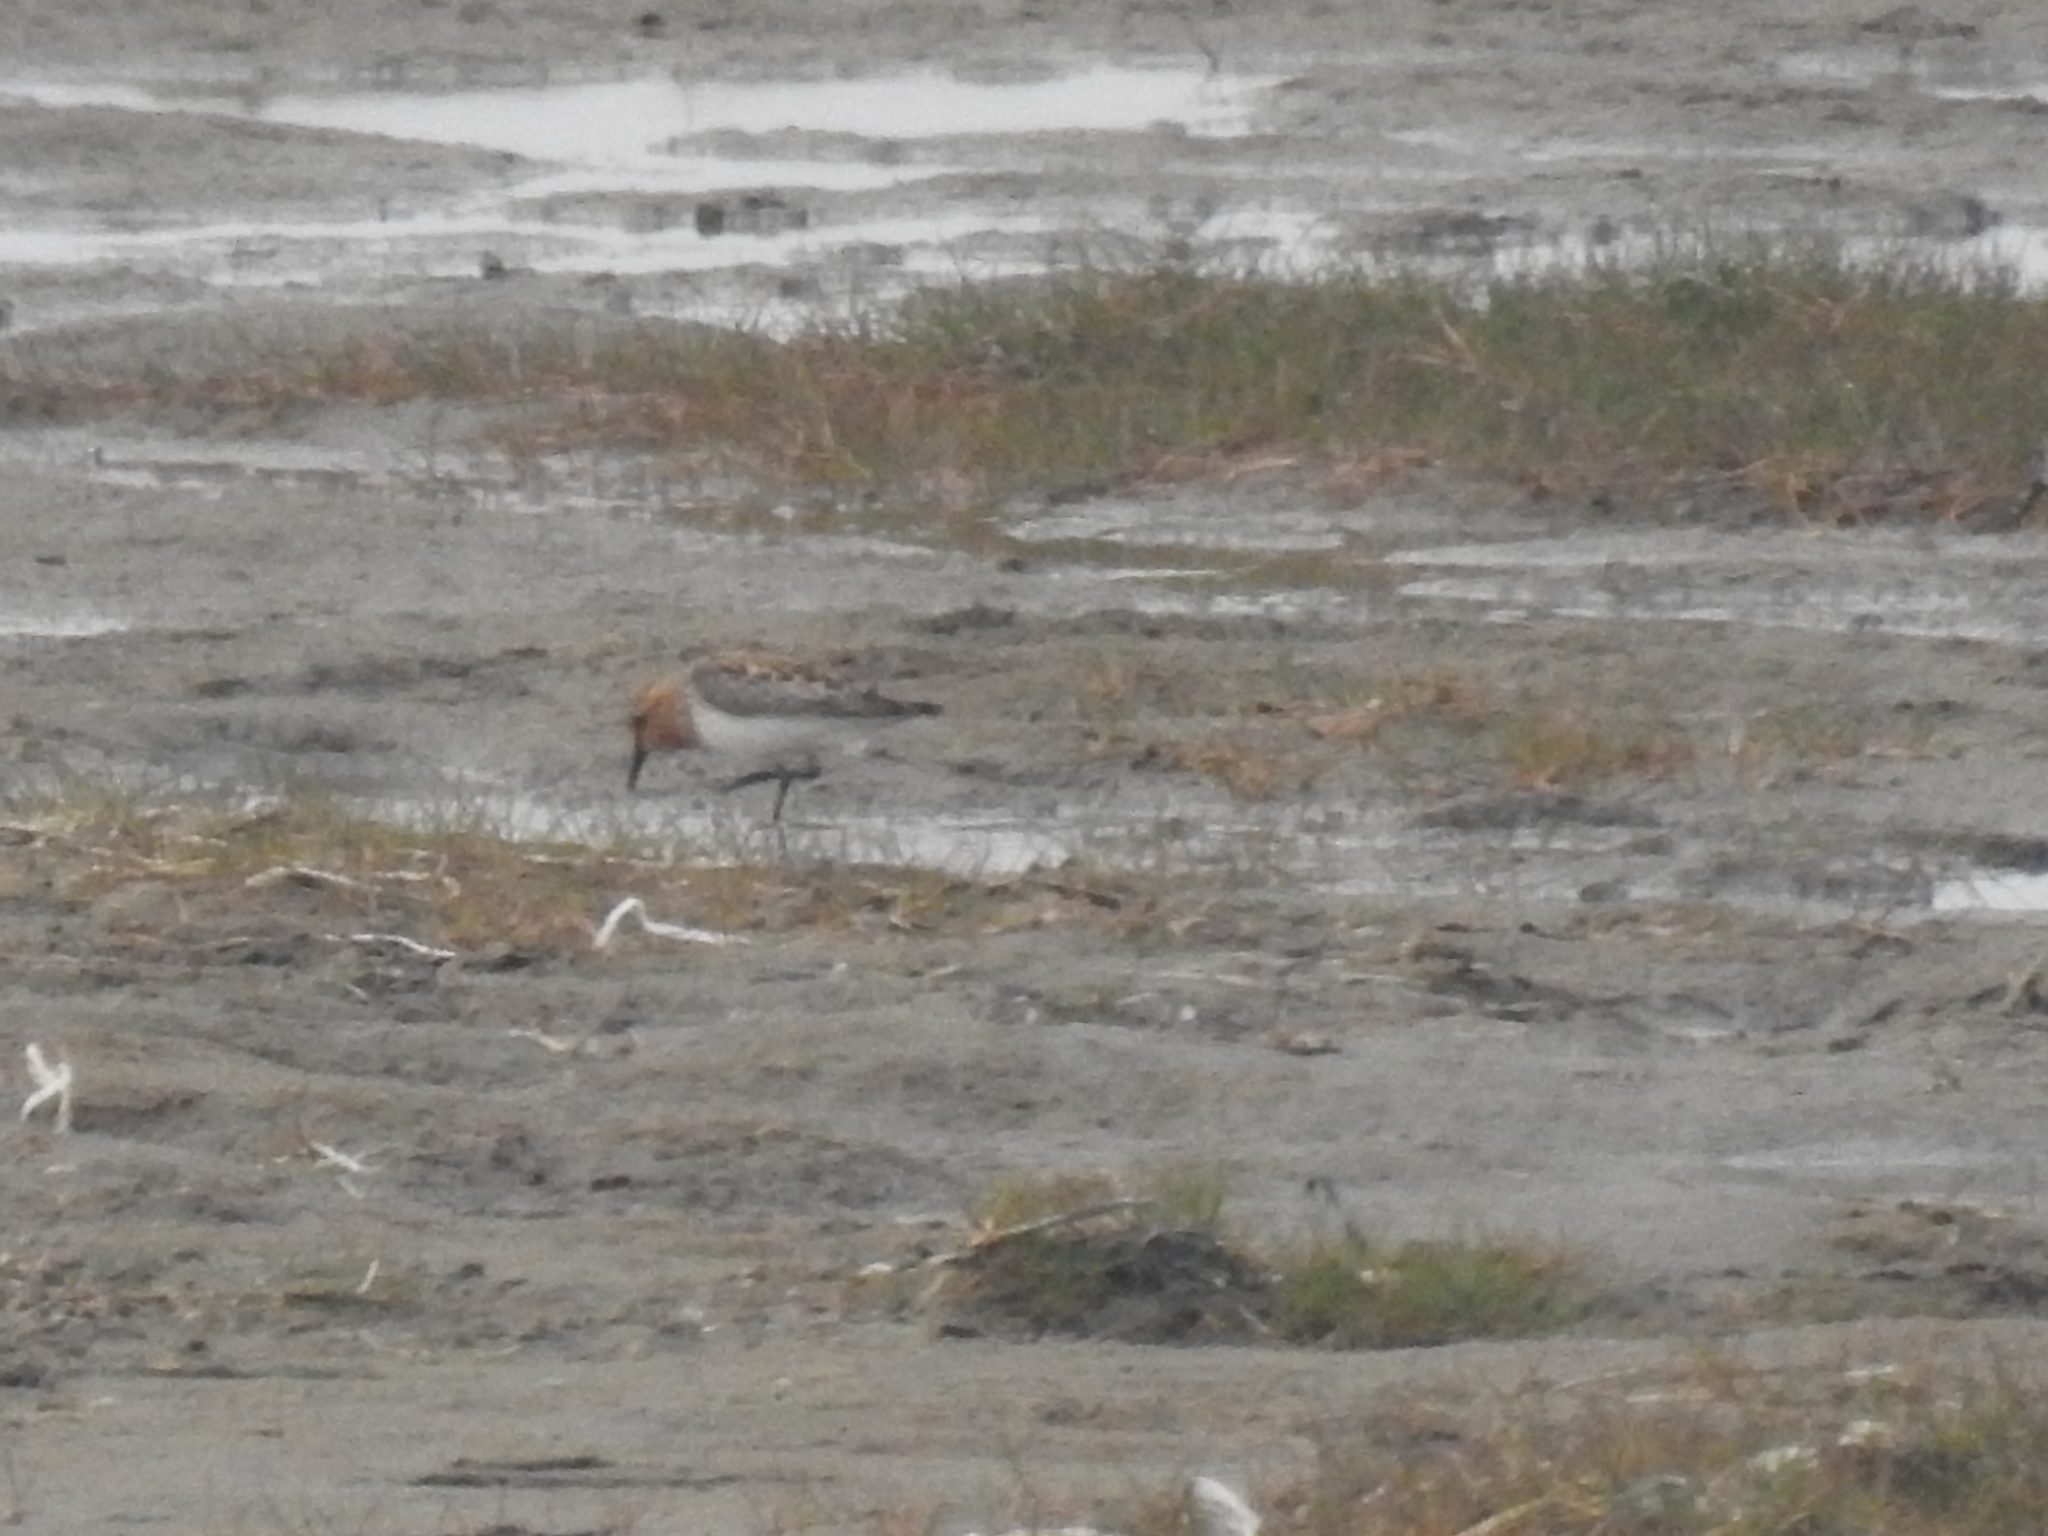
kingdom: Animalia
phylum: Chordata
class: Aves
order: Charadriiformes
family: Scolopacidae
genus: Calidris
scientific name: Calidris ruficollis
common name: Red-necked stint
